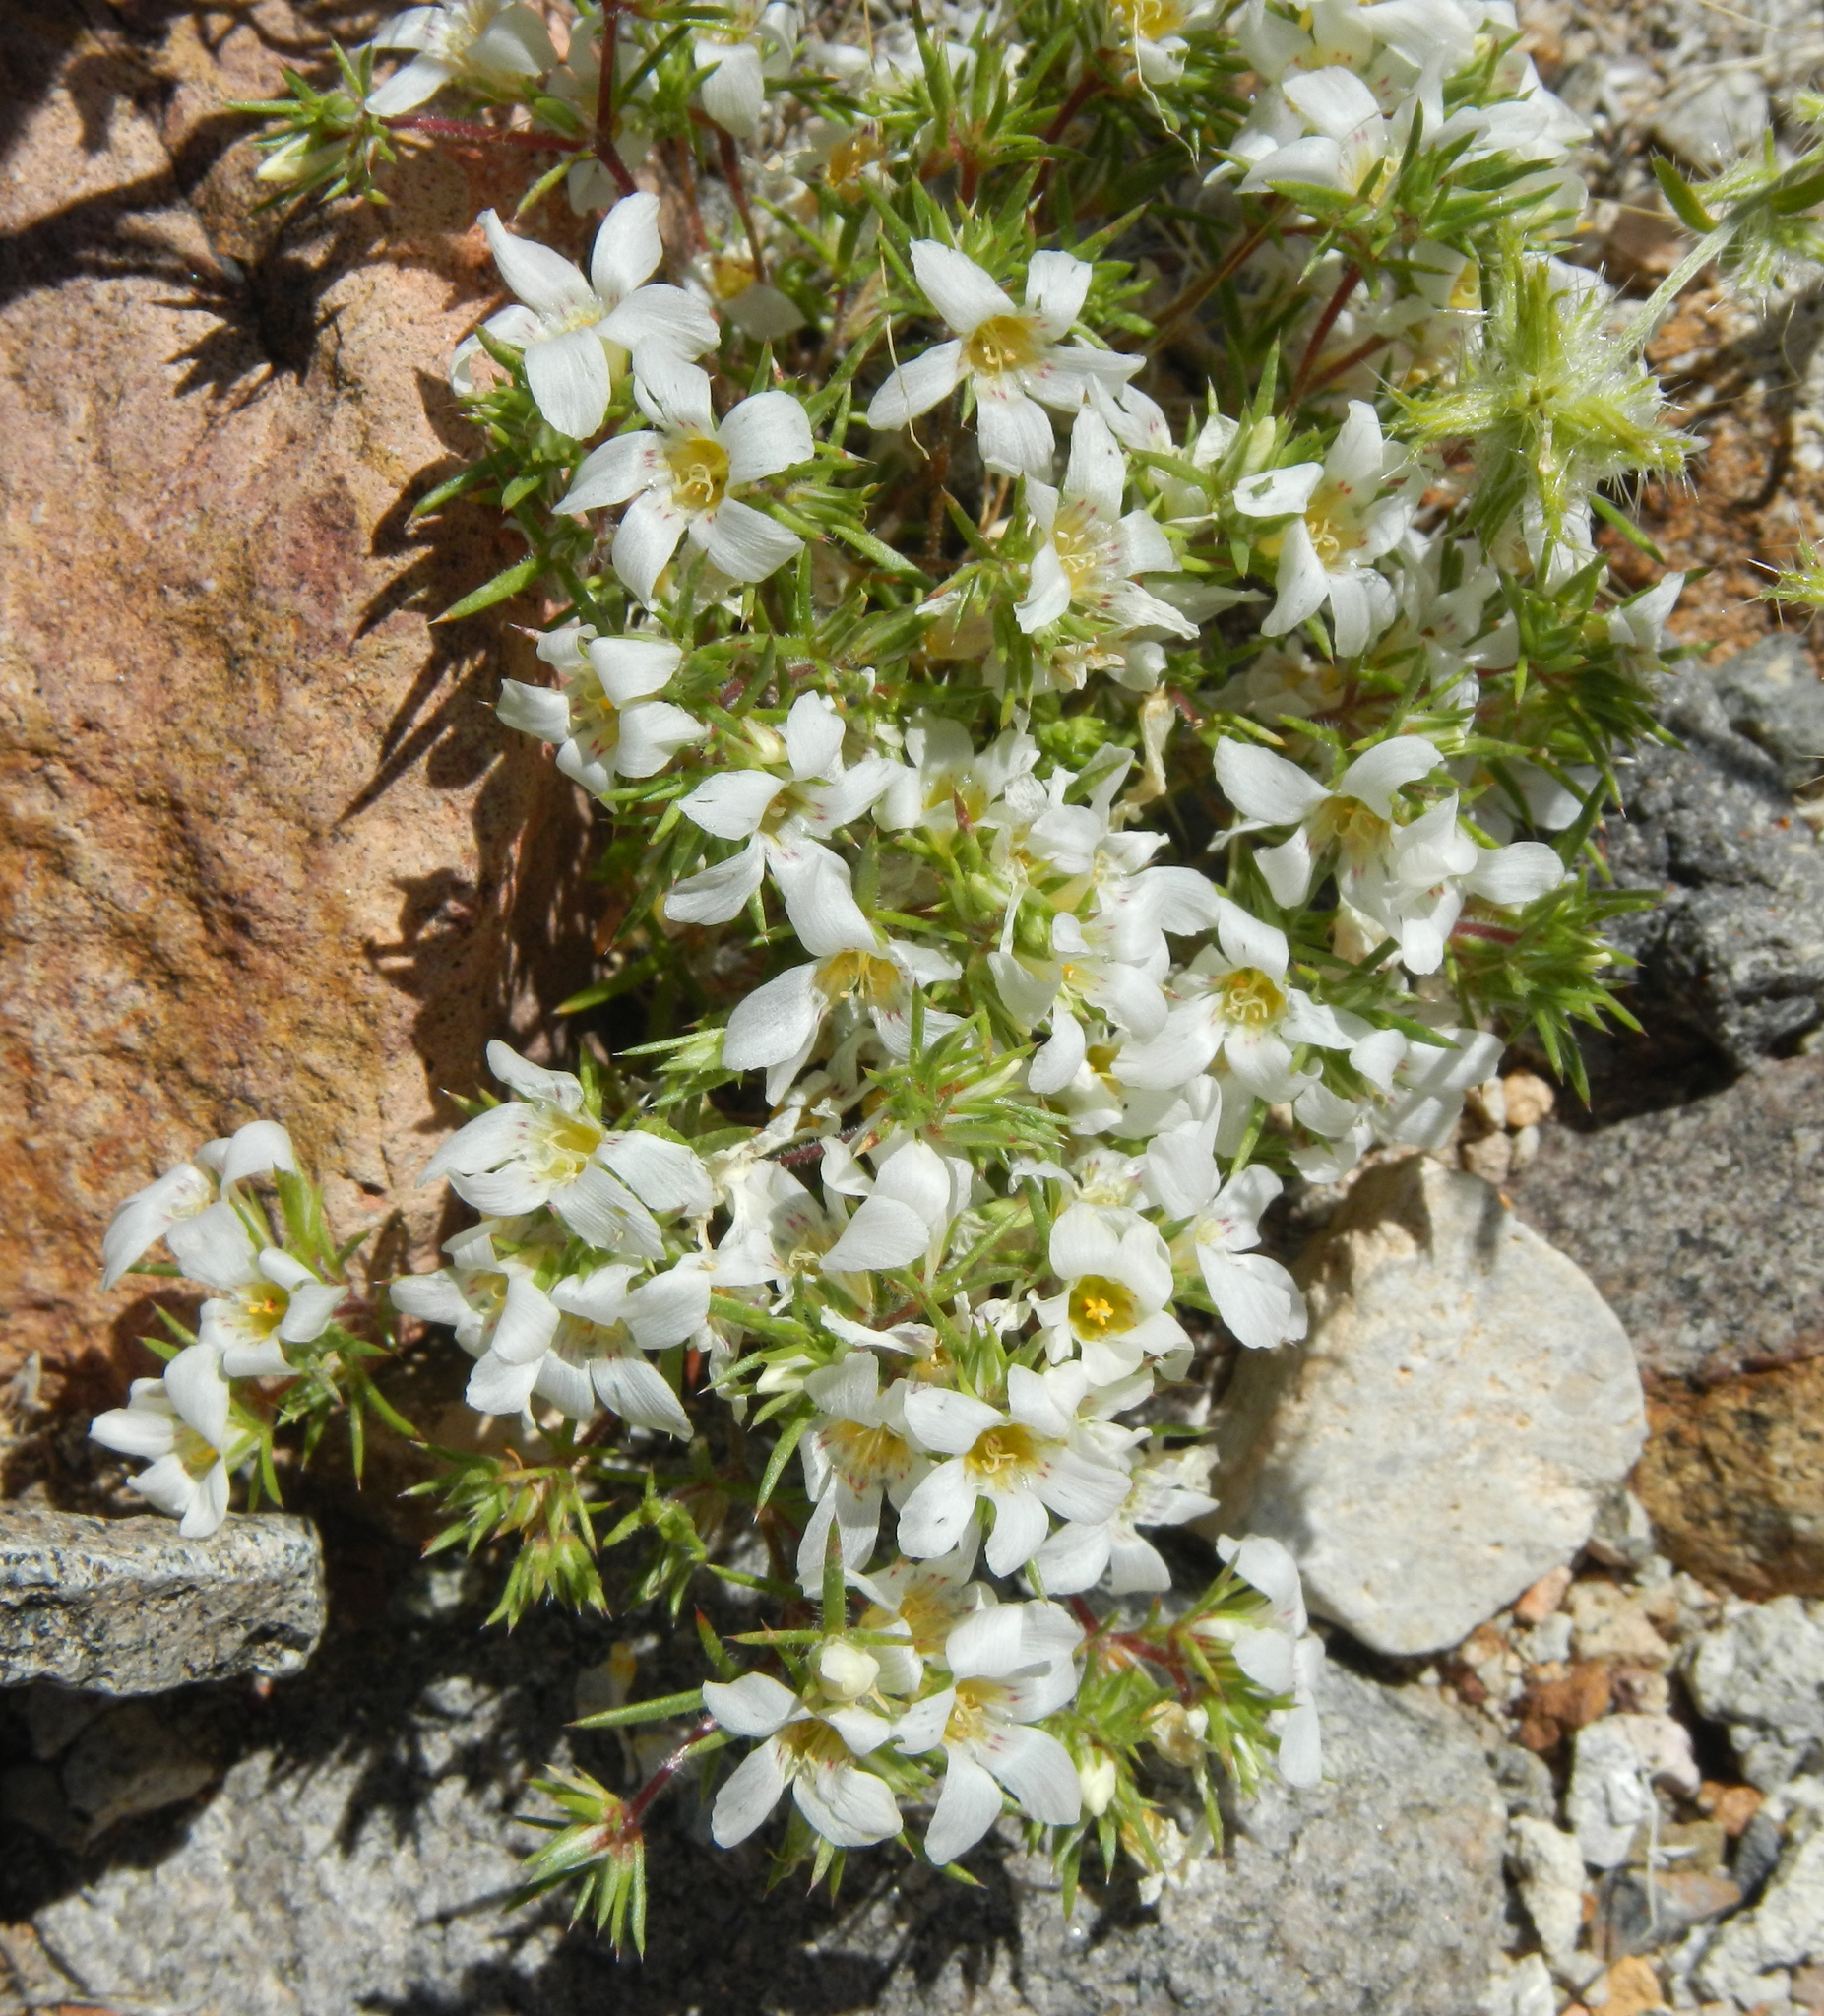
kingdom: Plantae
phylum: Tracheophyta
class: Magnoliopsida
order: Ericales
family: Polemoniaceae
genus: Linanthus
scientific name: Linanthus demissus
